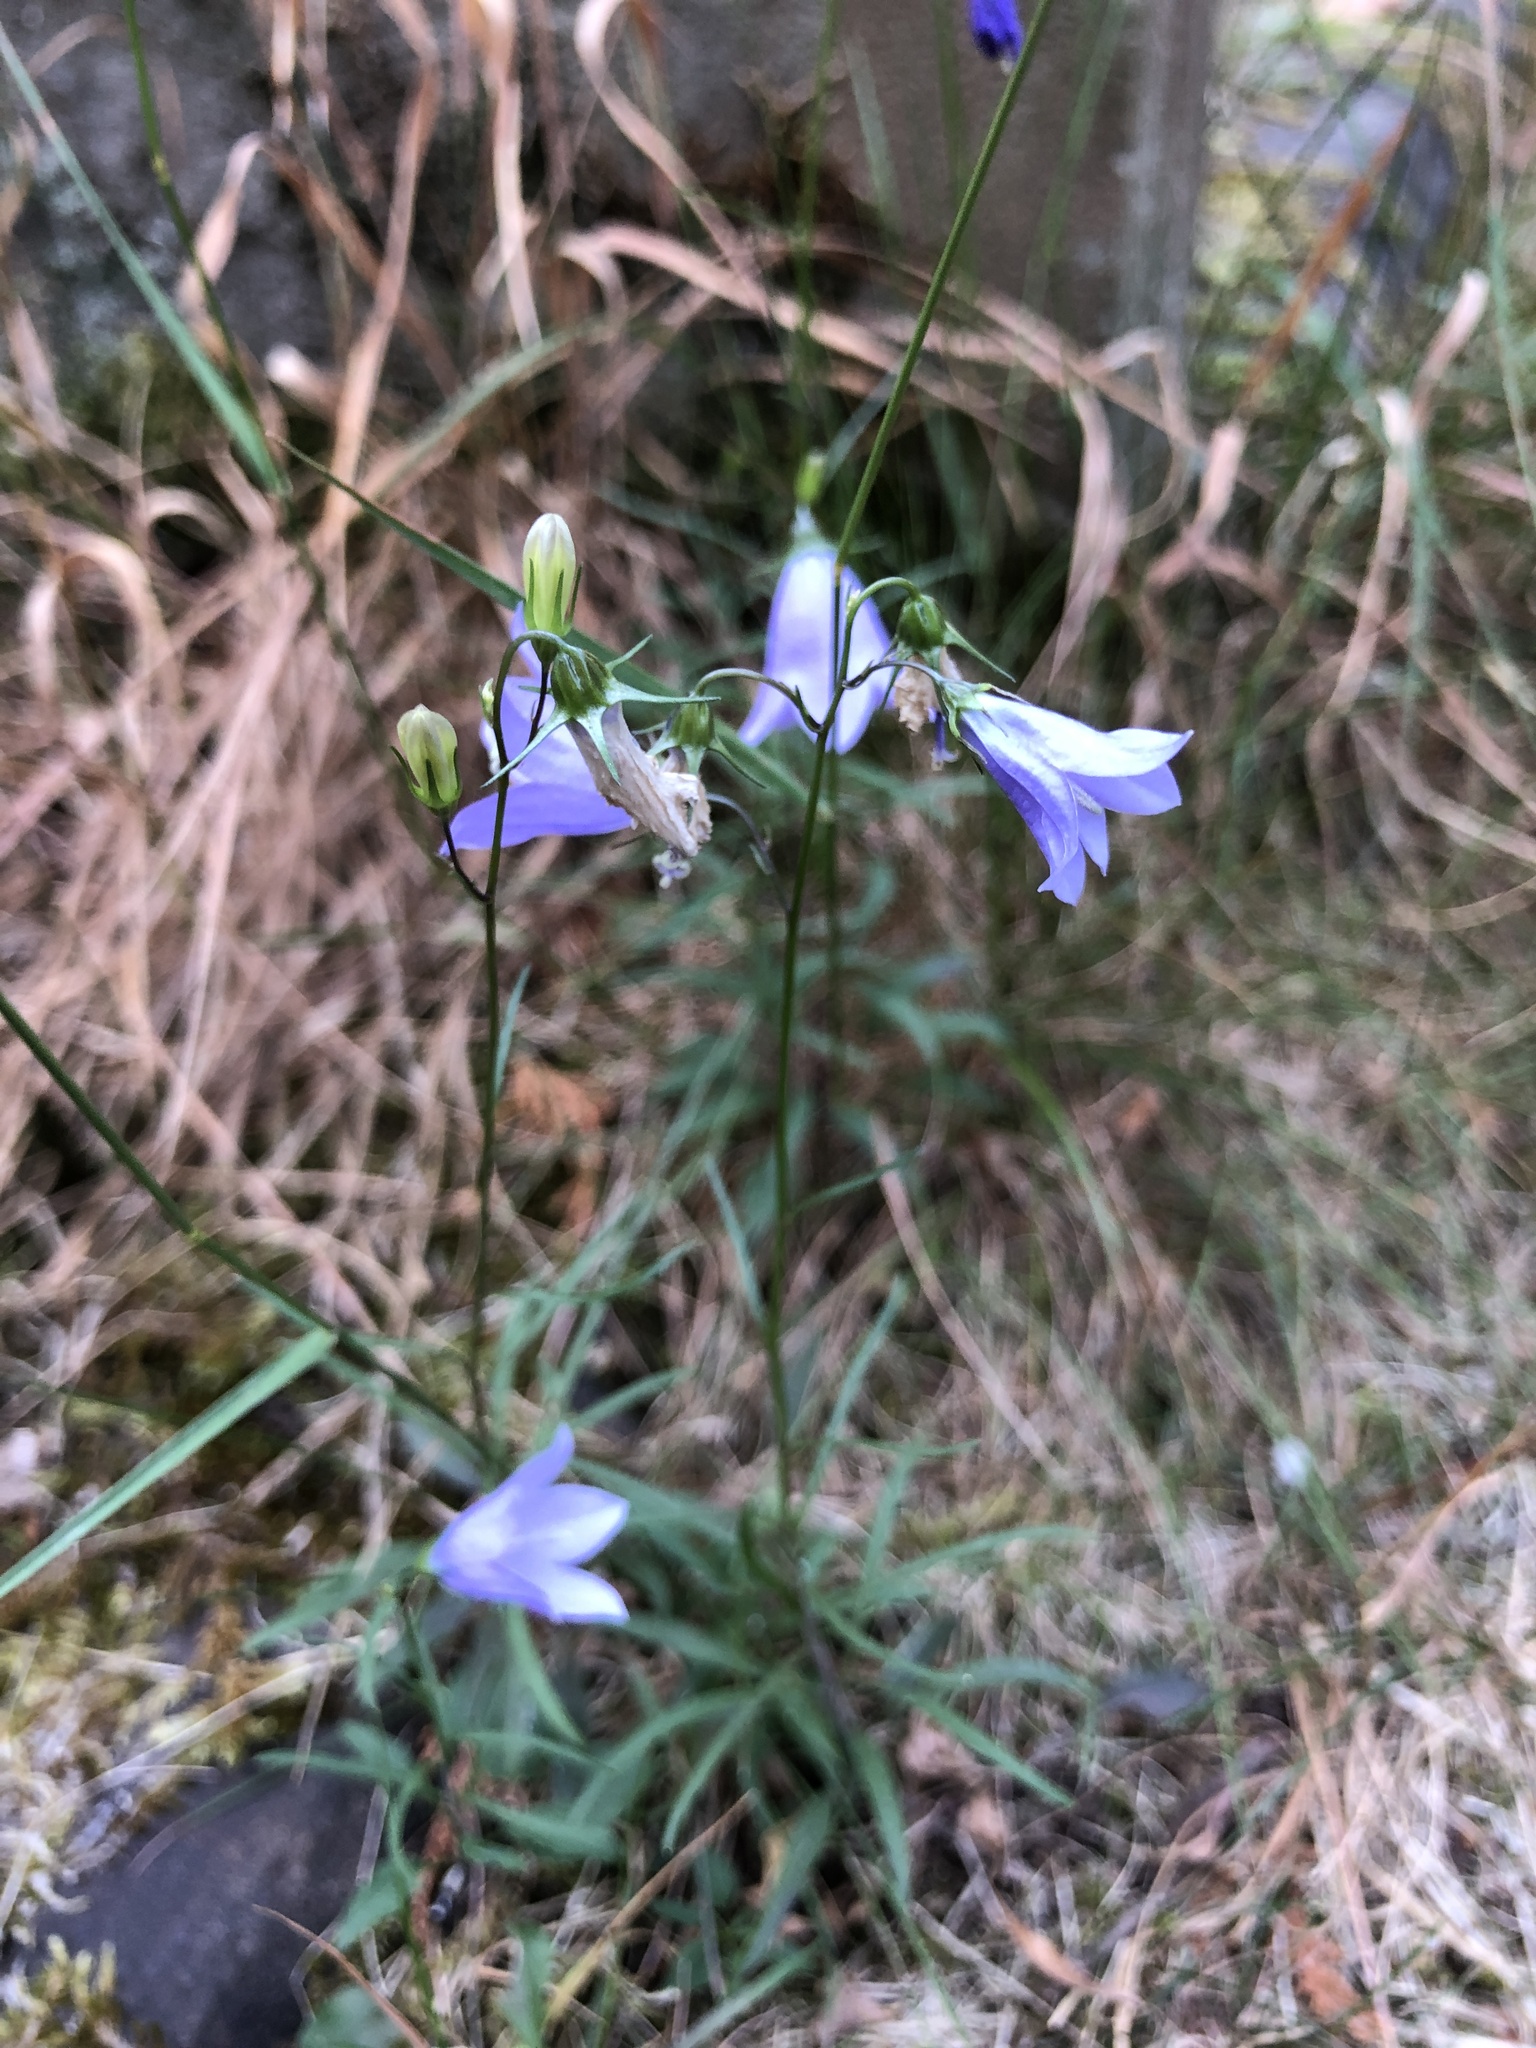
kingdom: Plantae
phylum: Tracheophyta
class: Magnoliopsida
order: Asterales
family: Campanulaceae
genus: Campanula
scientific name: Campanula rotundifolia
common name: Harebell
